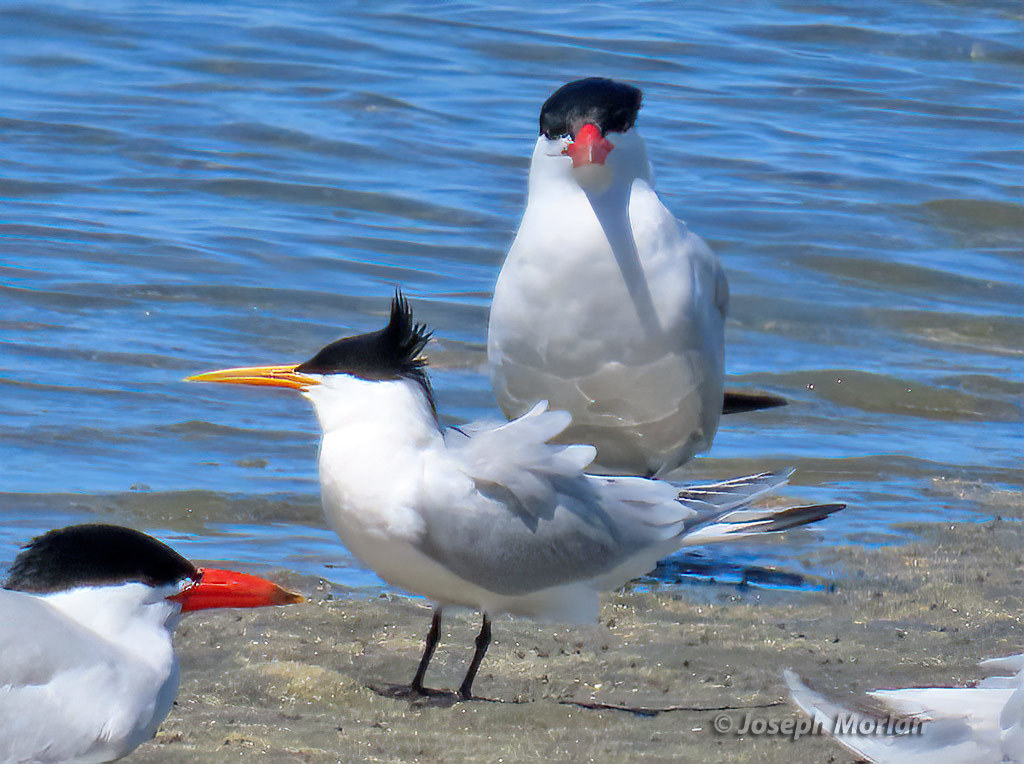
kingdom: Animalia
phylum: Chordata
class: Aves
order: Charadriiformes
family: Laridae
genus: Thalasseus
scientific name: Thalasseus elegans
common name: Elegant tern
